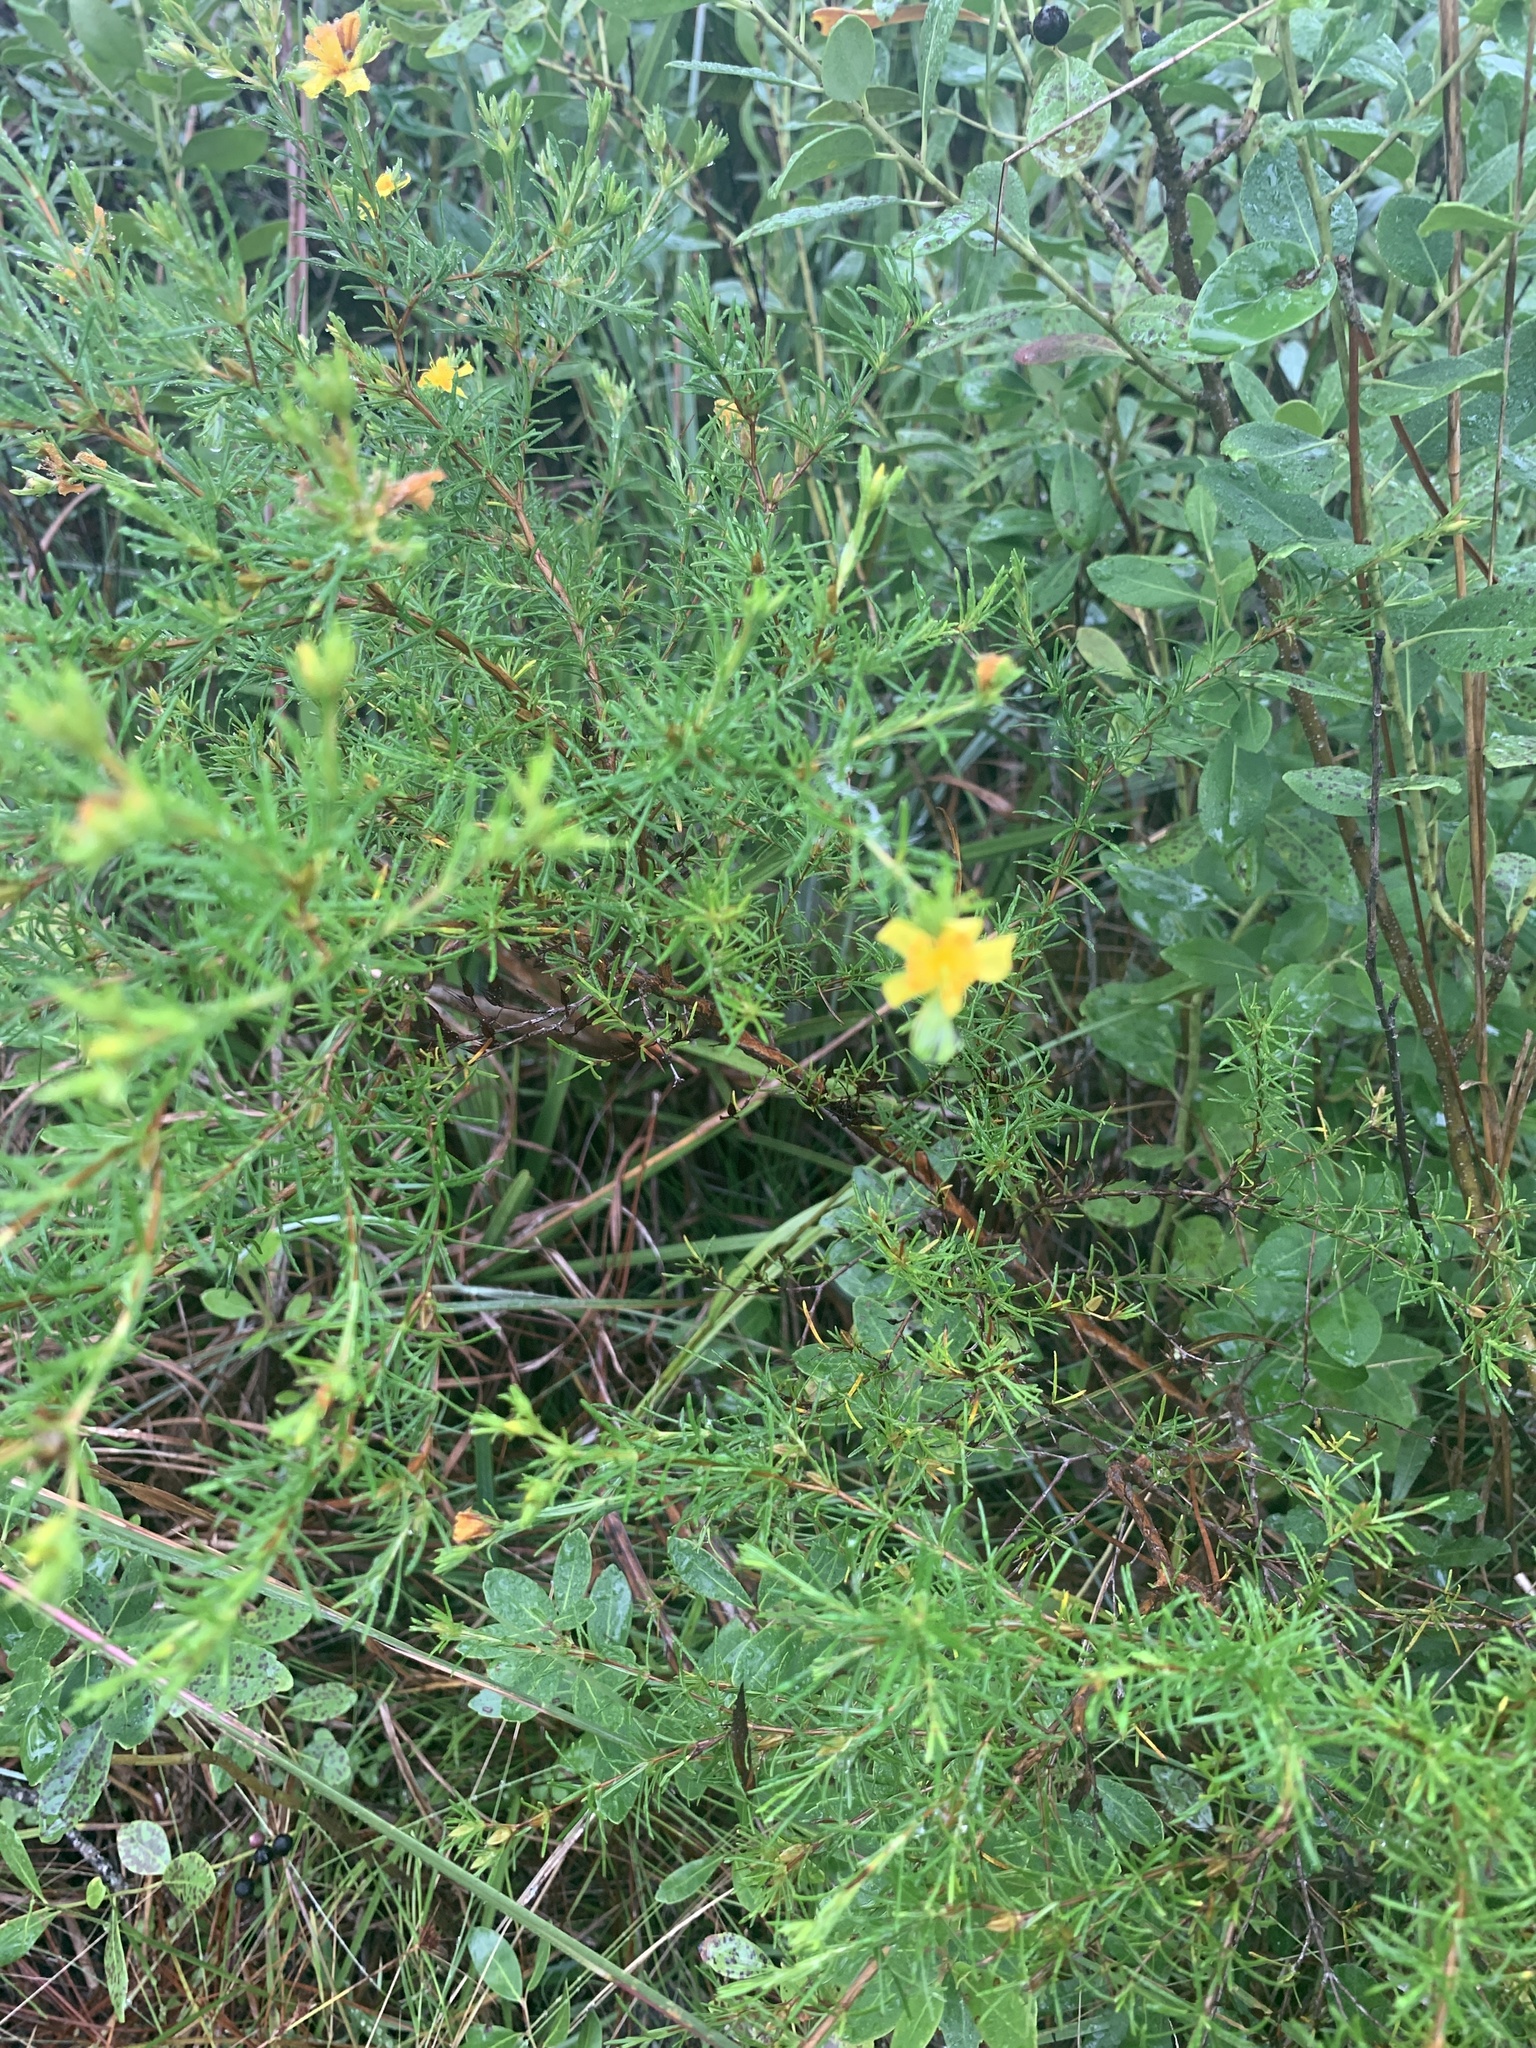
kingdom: Plantae
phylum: Tracheophyta
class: Magnoliopsida
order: Malpighiales
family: Hypericaceae
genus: Hypericum
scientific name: Hypericum fasciculatum
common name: Peelbark st. john's wort
